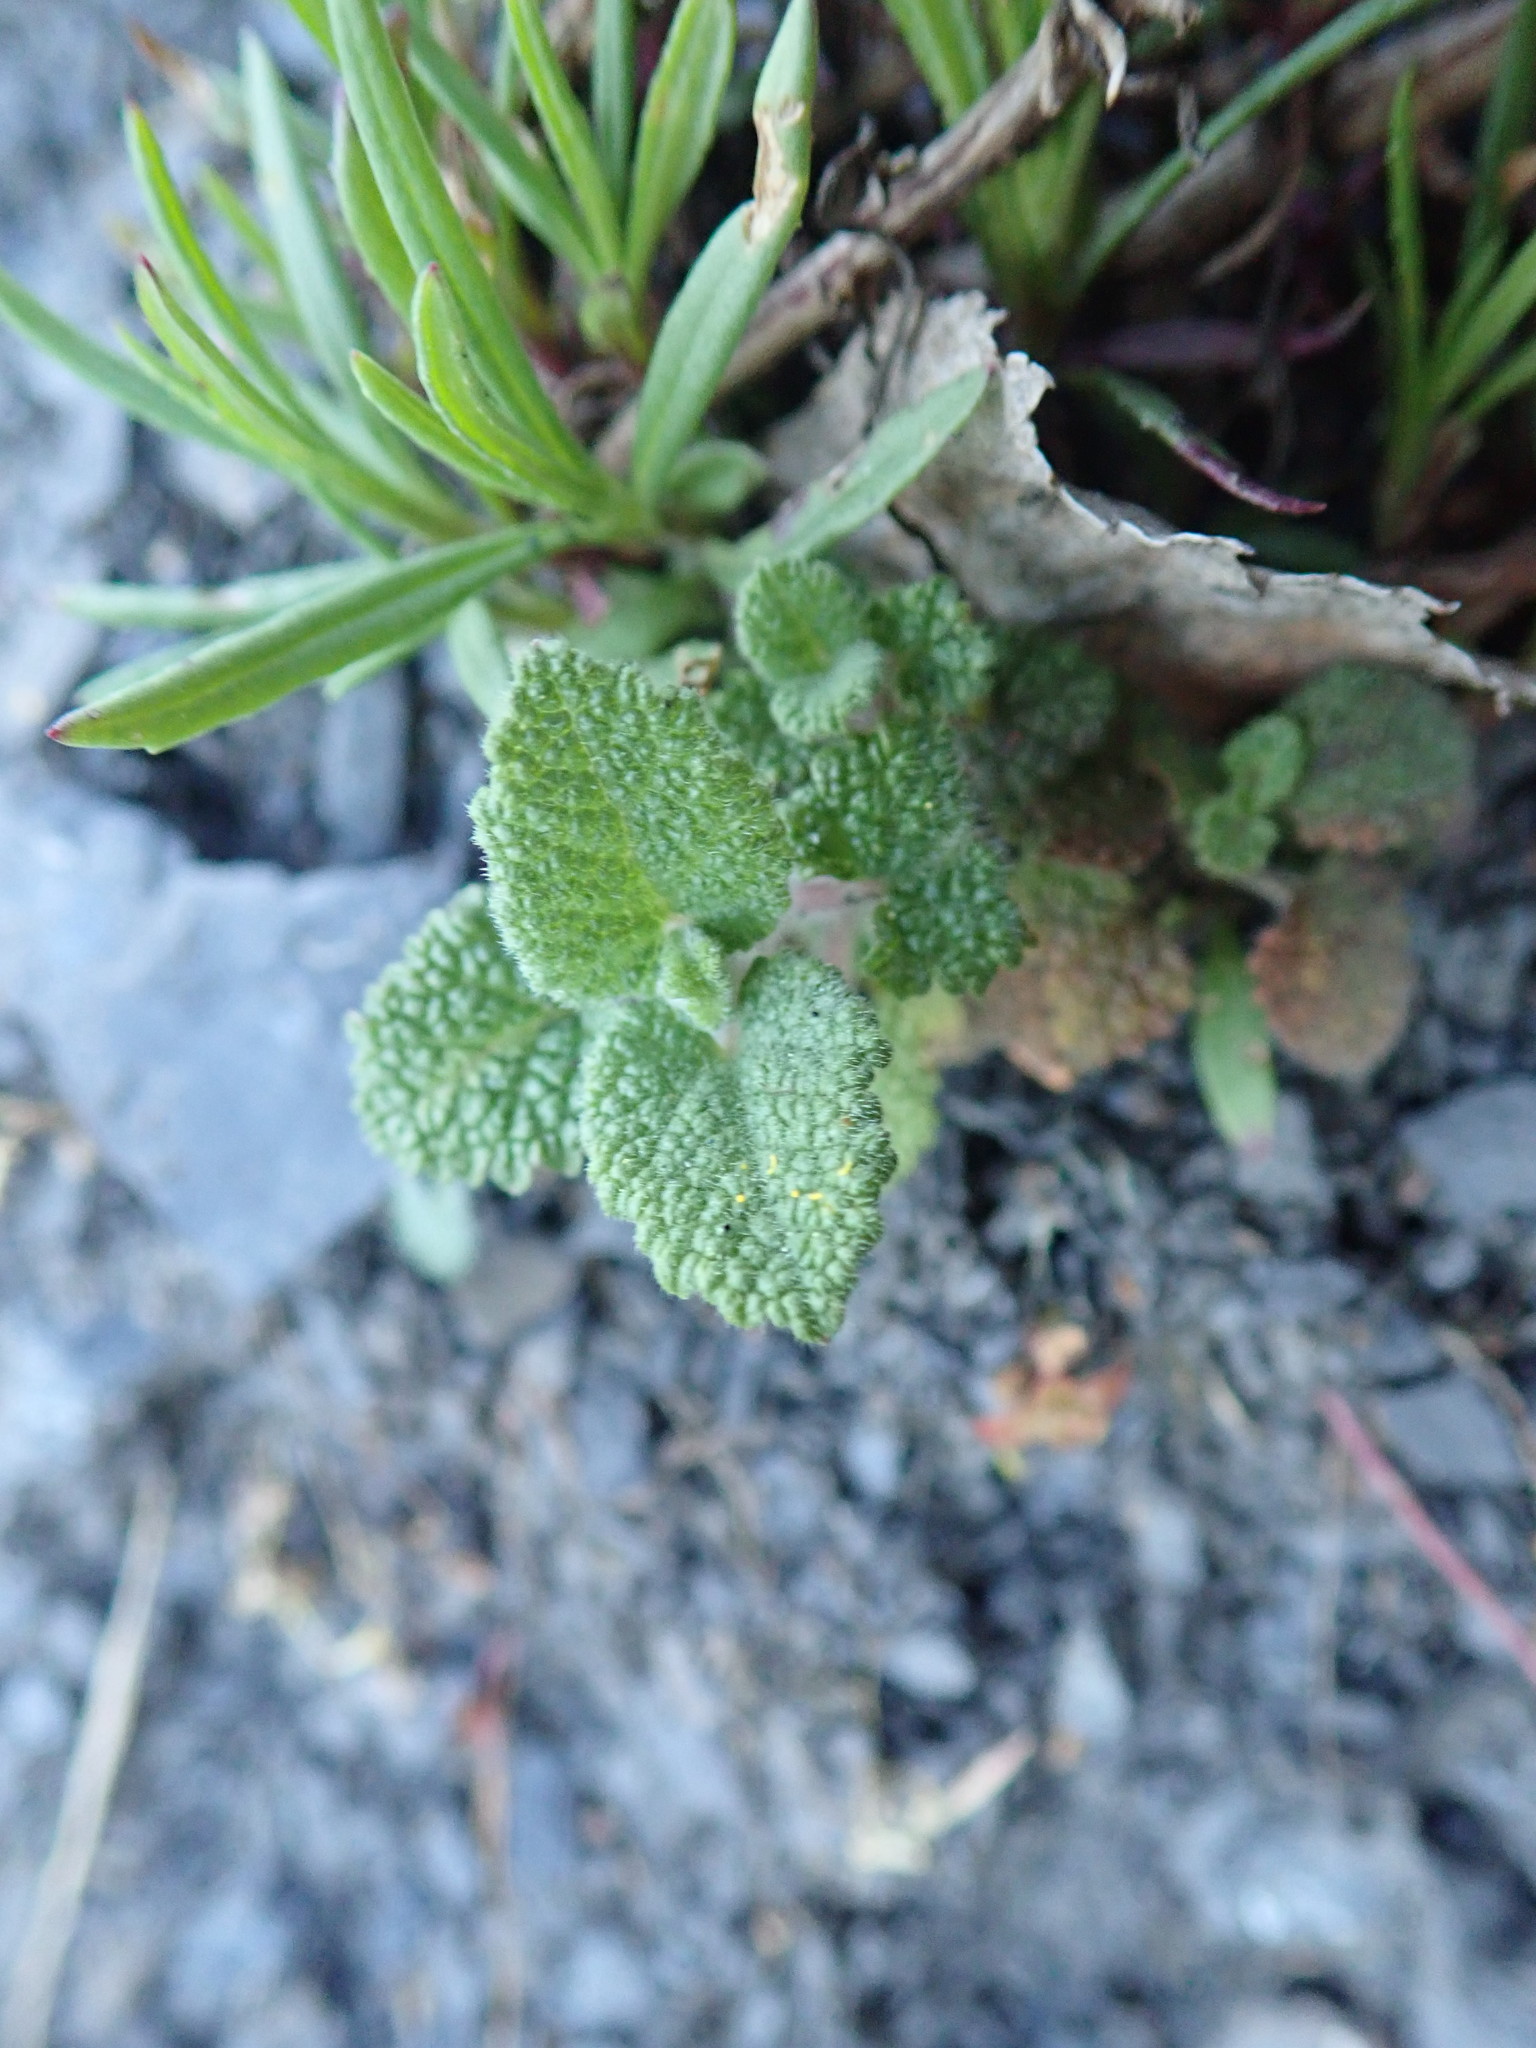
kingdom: Plantae
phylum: Tracheophyta
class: Magnoliopsida
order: Lamiales
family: Lamiaceae
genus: Teucrium
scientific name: Teucrium scorodonia
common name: Woodland germander
